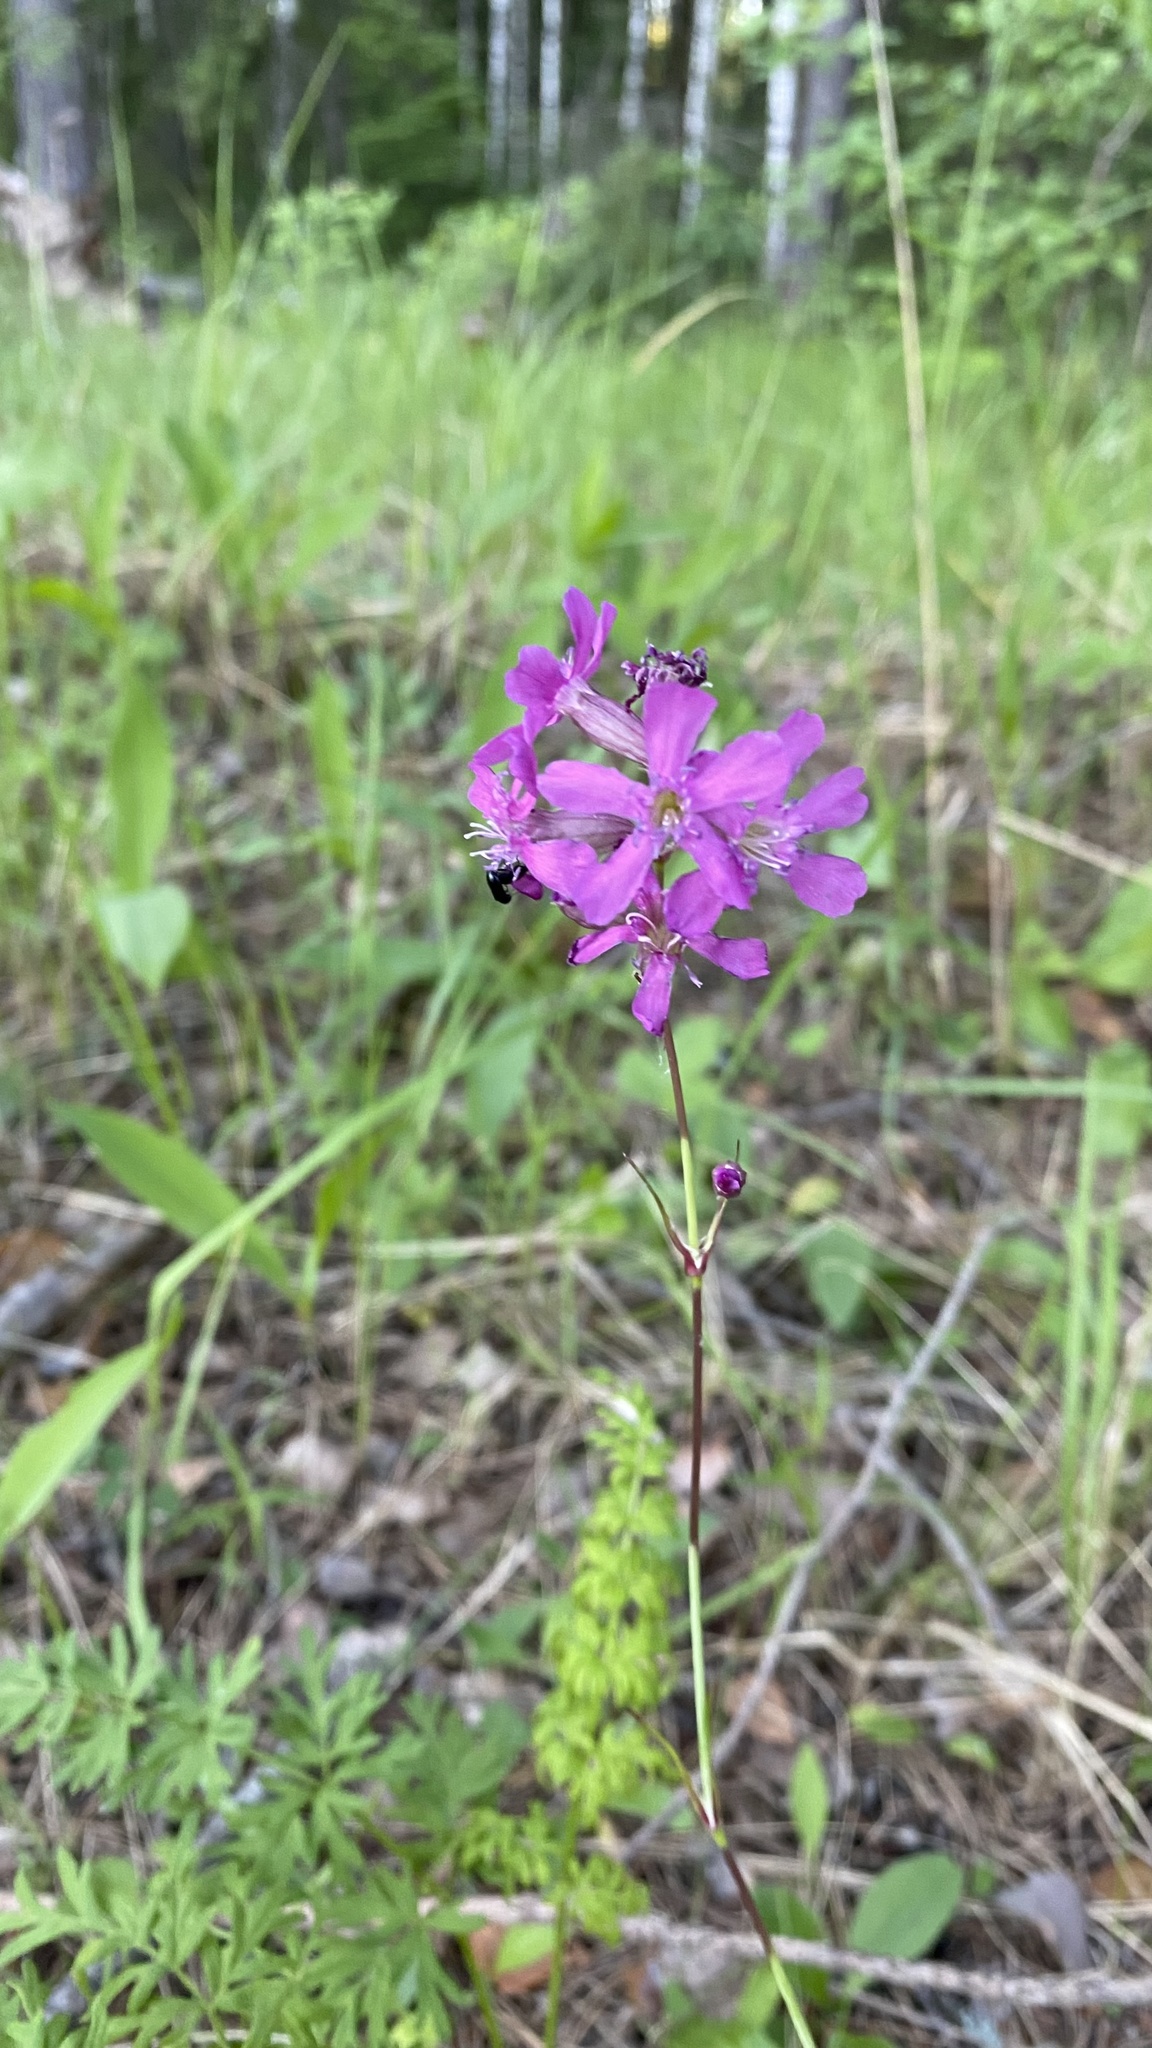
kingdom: Plantae
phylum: Tracheophyta
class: Magnoliopsida
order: Caryophyllales
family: Caryophyllaceae
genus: Viscaria
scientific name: Viscaria vulgaris
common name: Clammy campion
